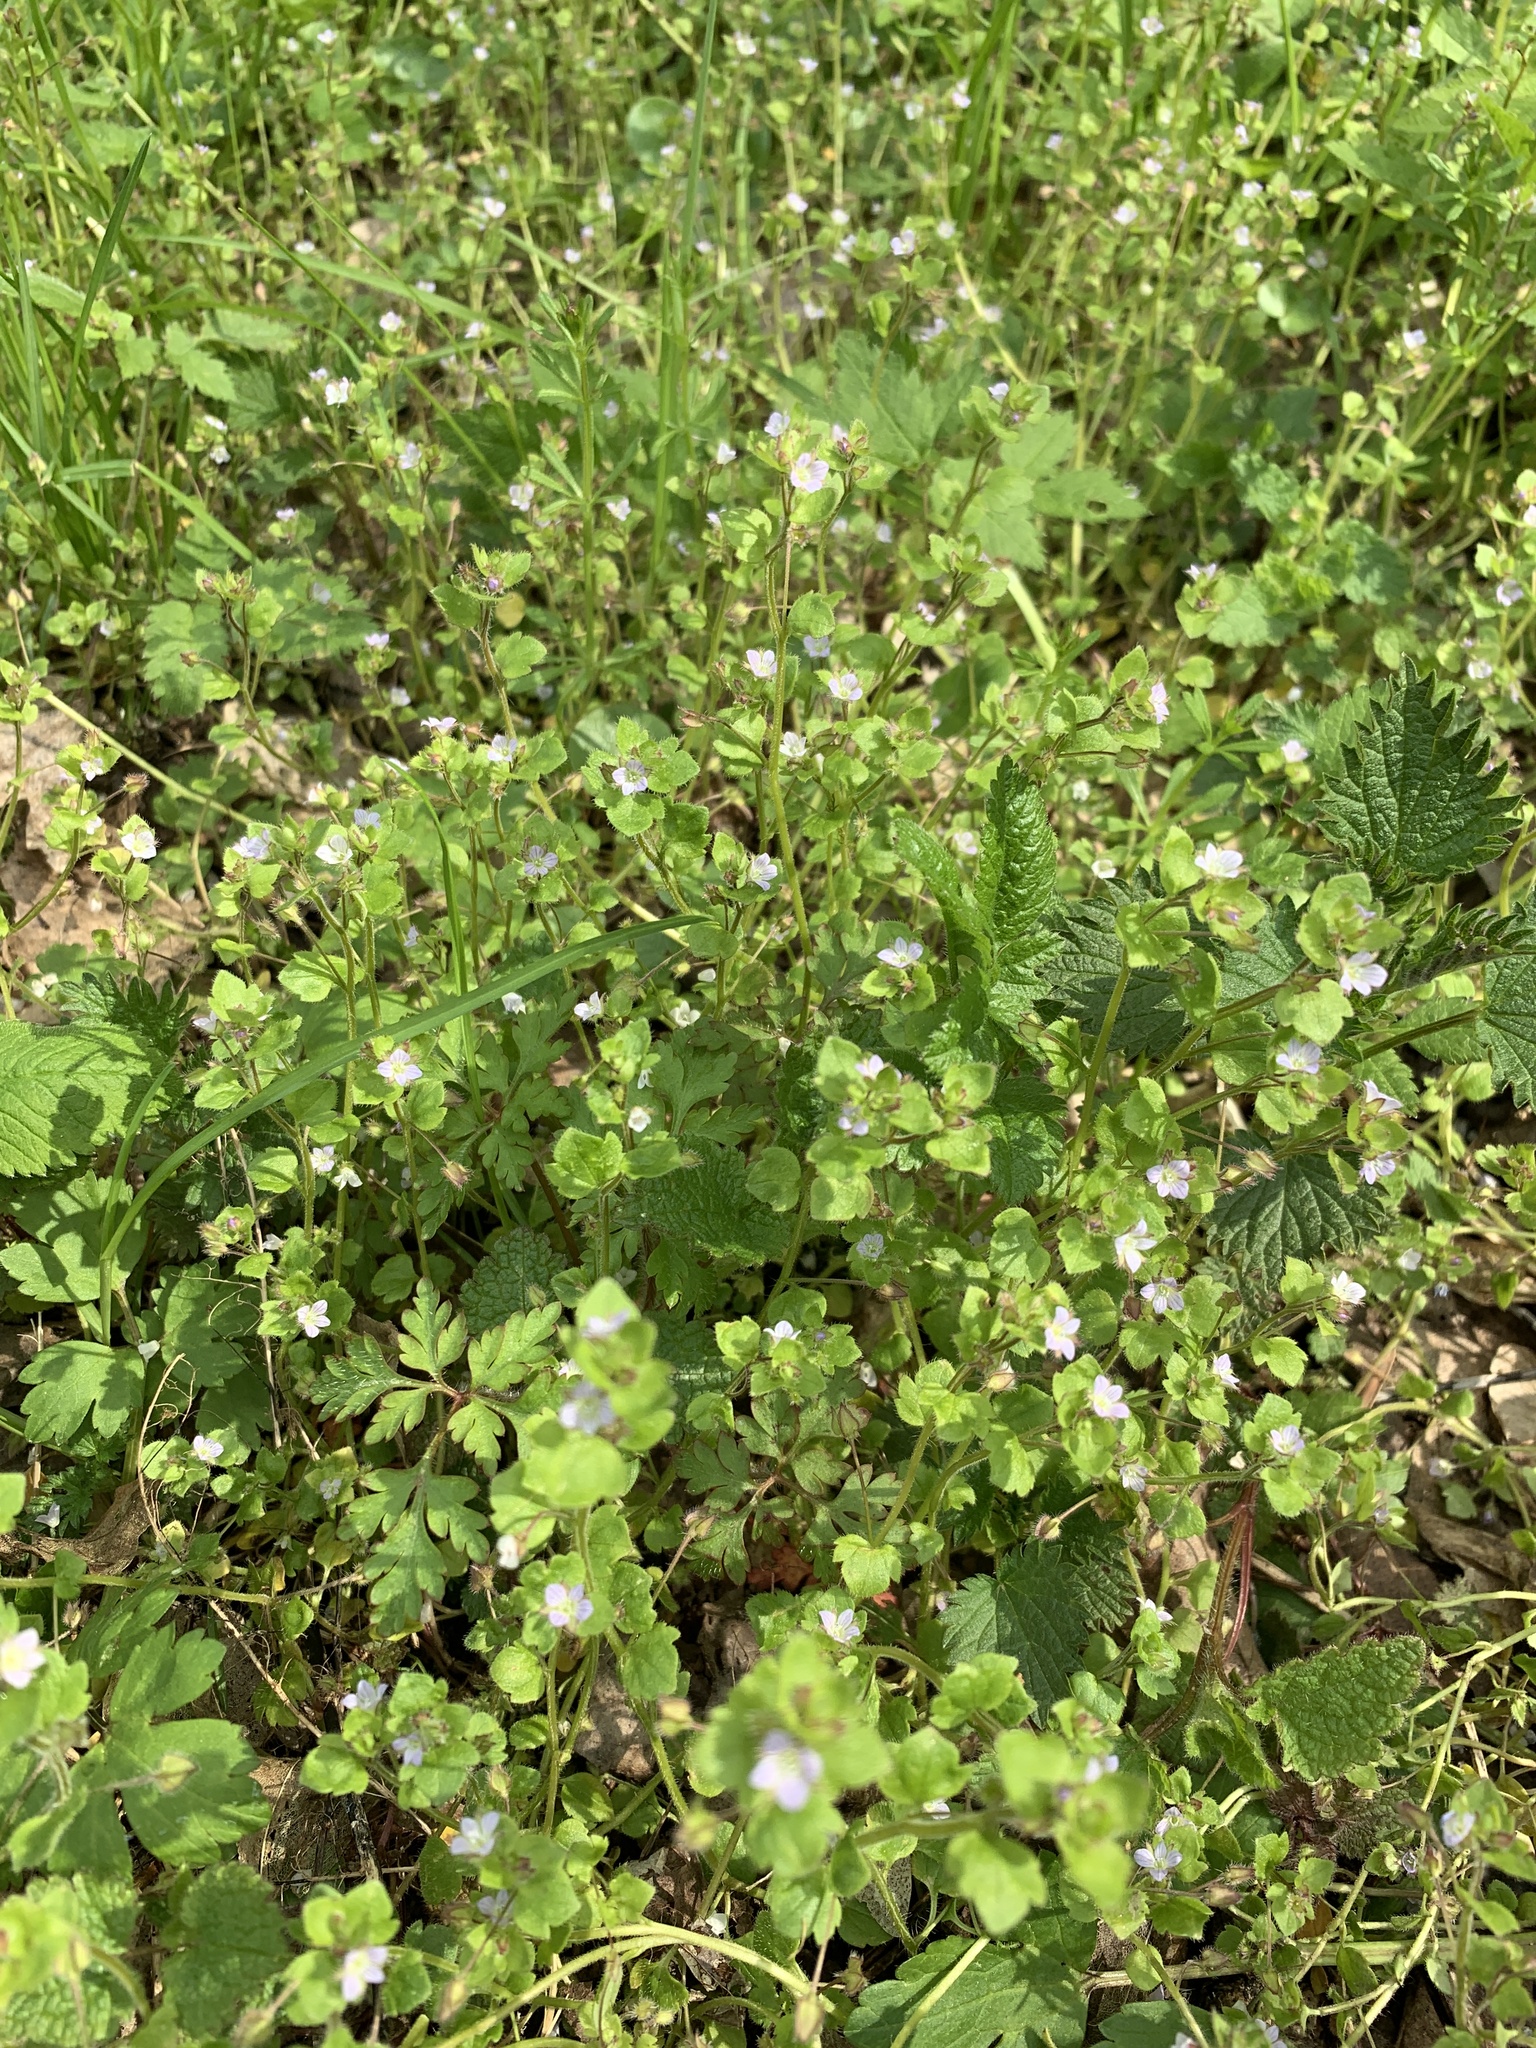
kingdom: Plantae
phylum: Tracheophyta
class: Magnoliopsida
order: Lamiales
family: Plantaginaceae
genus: Veronica
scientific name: Veronica sublobata
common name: False ivy-leaved speedwell
